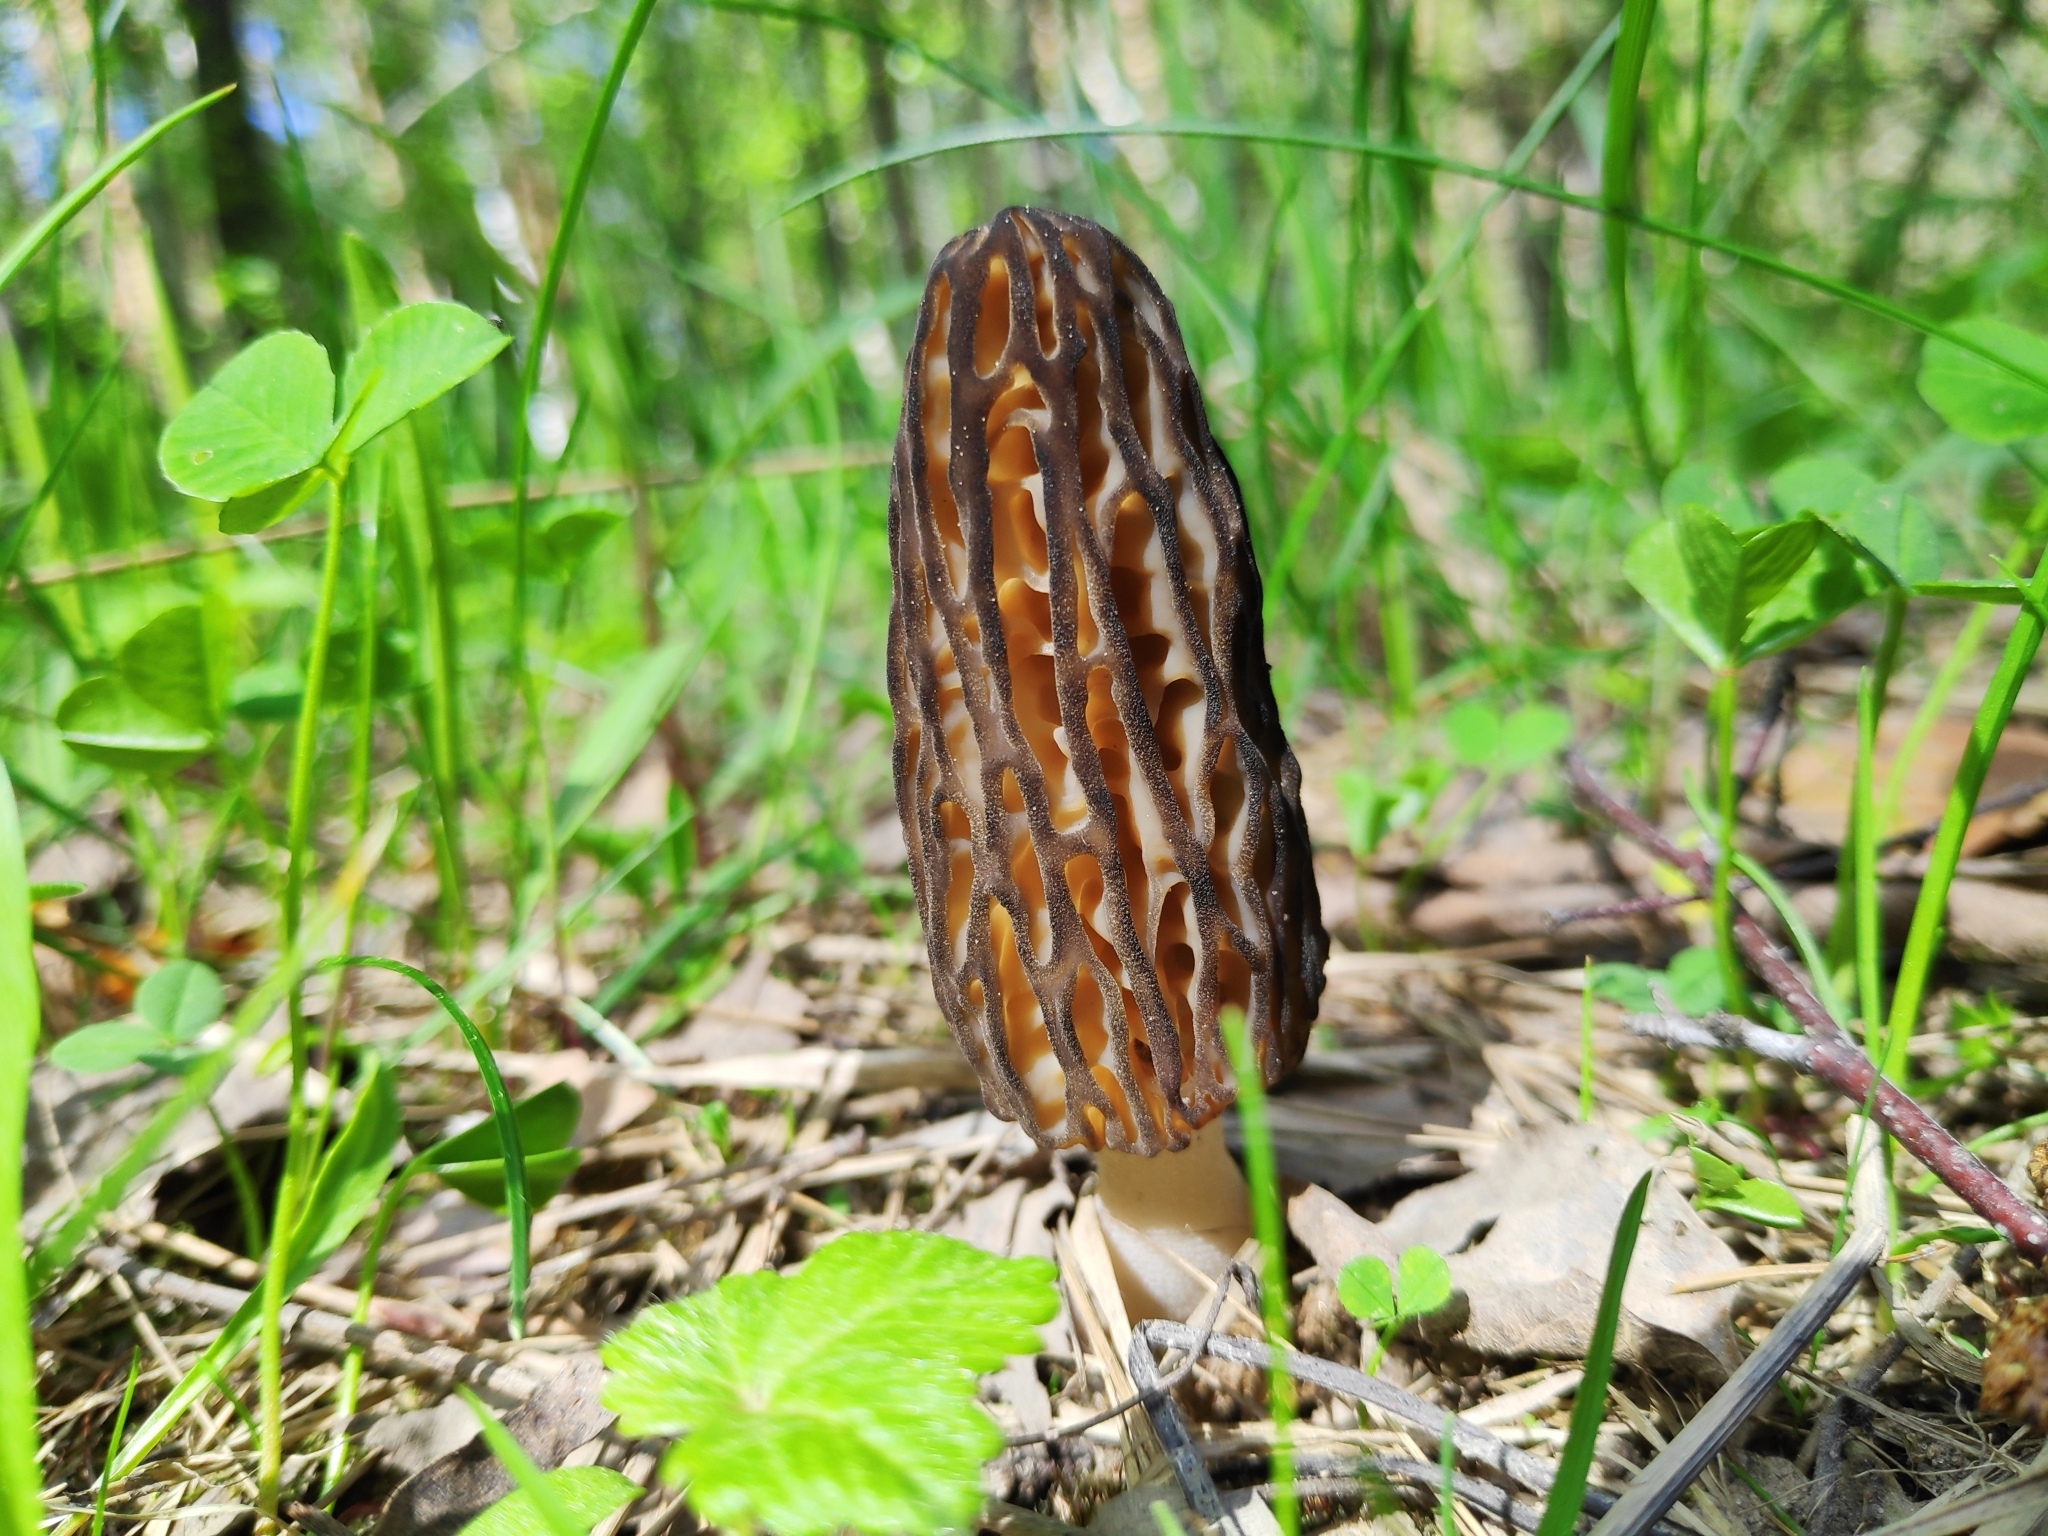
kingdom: Fungi
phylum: Ascomycota
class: Pezizomycetes
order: Pezizales
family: Morchellaceae
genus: Morchella
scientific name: Morchella
